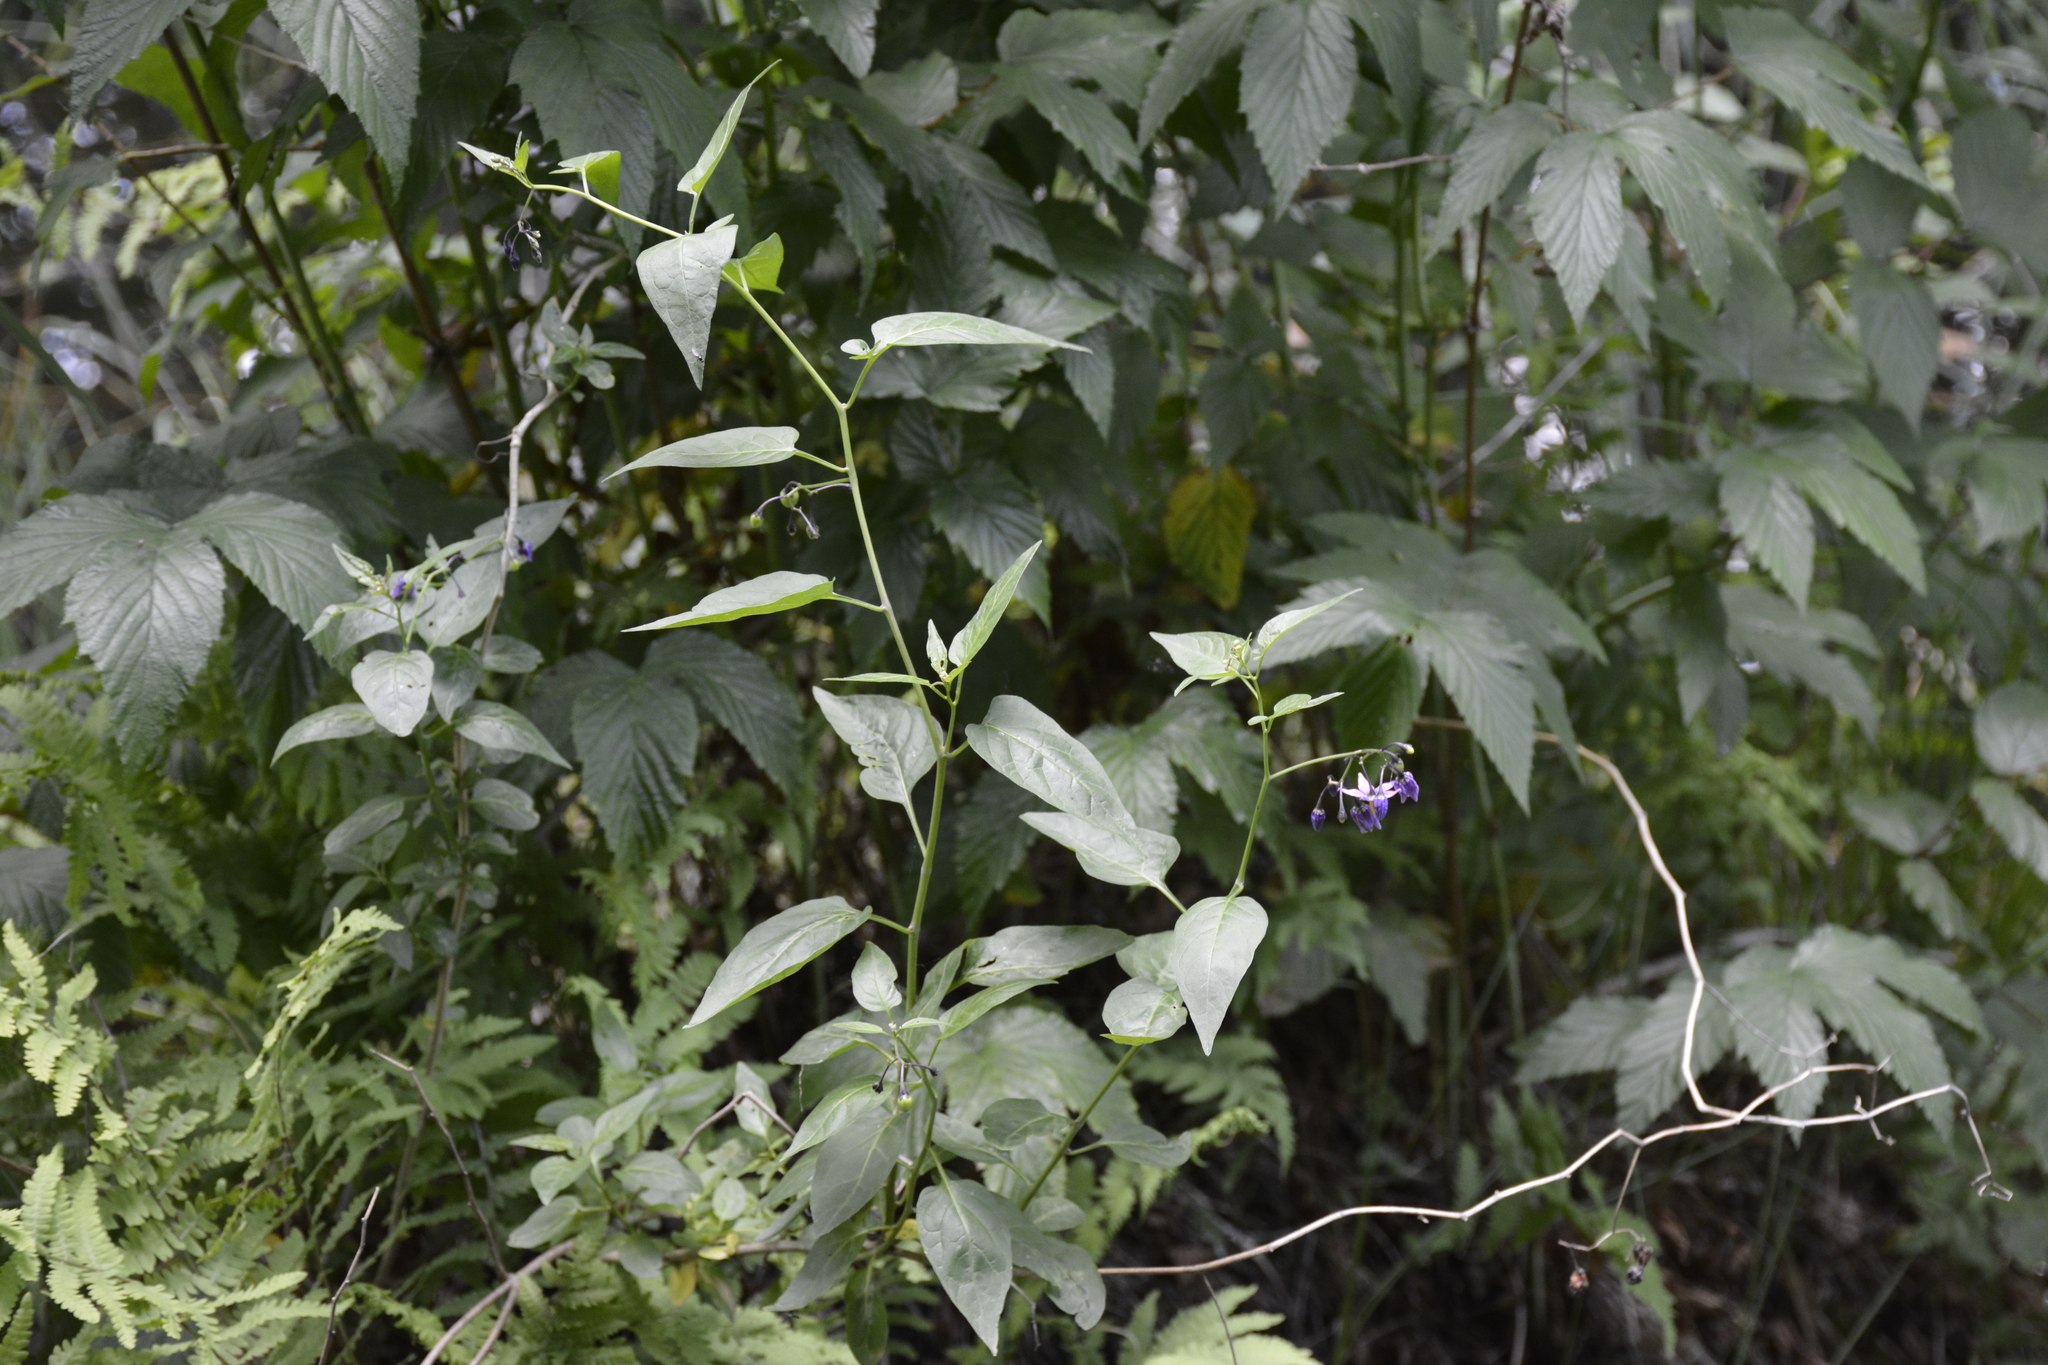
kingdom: Plantae
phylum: Tracheophyta
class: Magnoliopsida
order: Solanales
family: Solanaceae
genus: Solanum
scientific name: Solanum dulcamara
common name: Climbing nightshade
